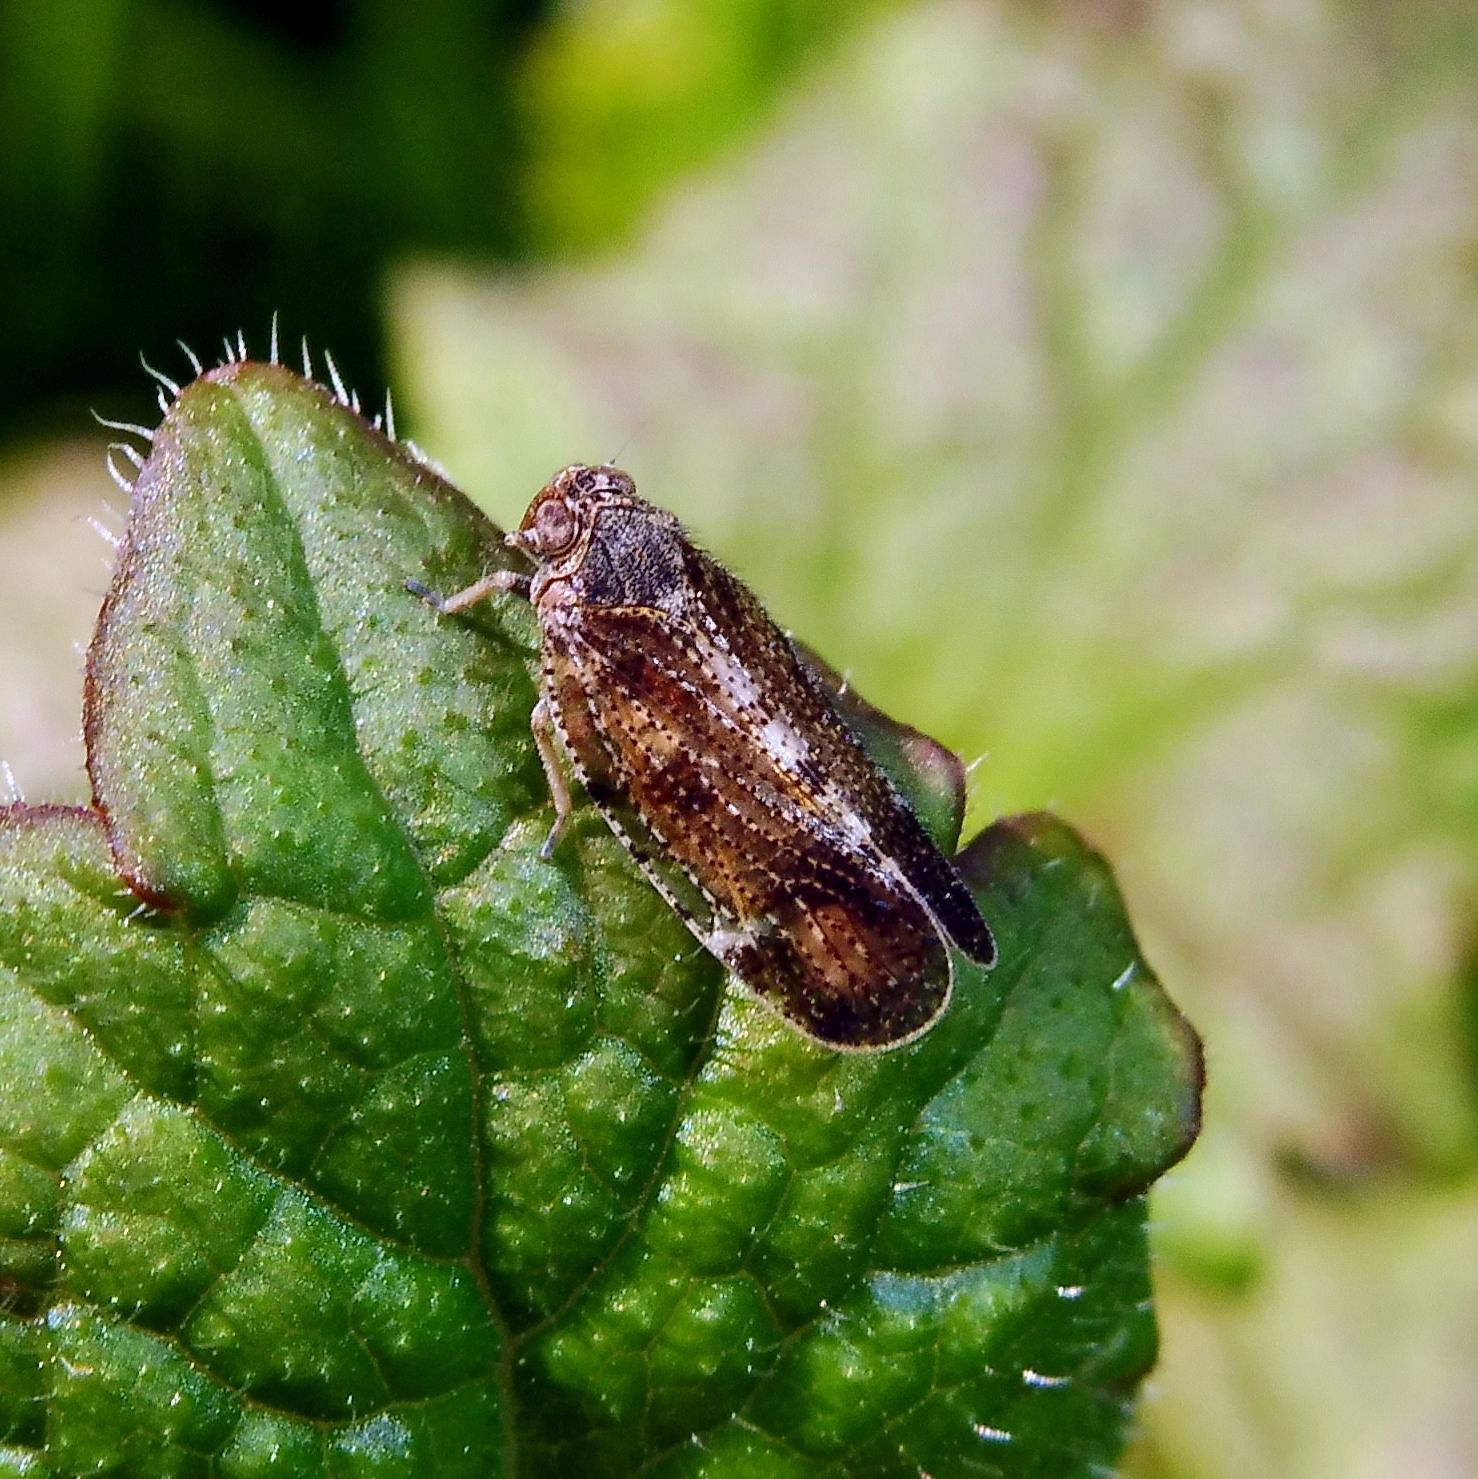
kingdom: Animalia
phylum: Arthropoda
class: Insecta
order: Hemiptera
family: Cixiidae
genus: Tachycixius
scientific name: Tachycixius pilosus
